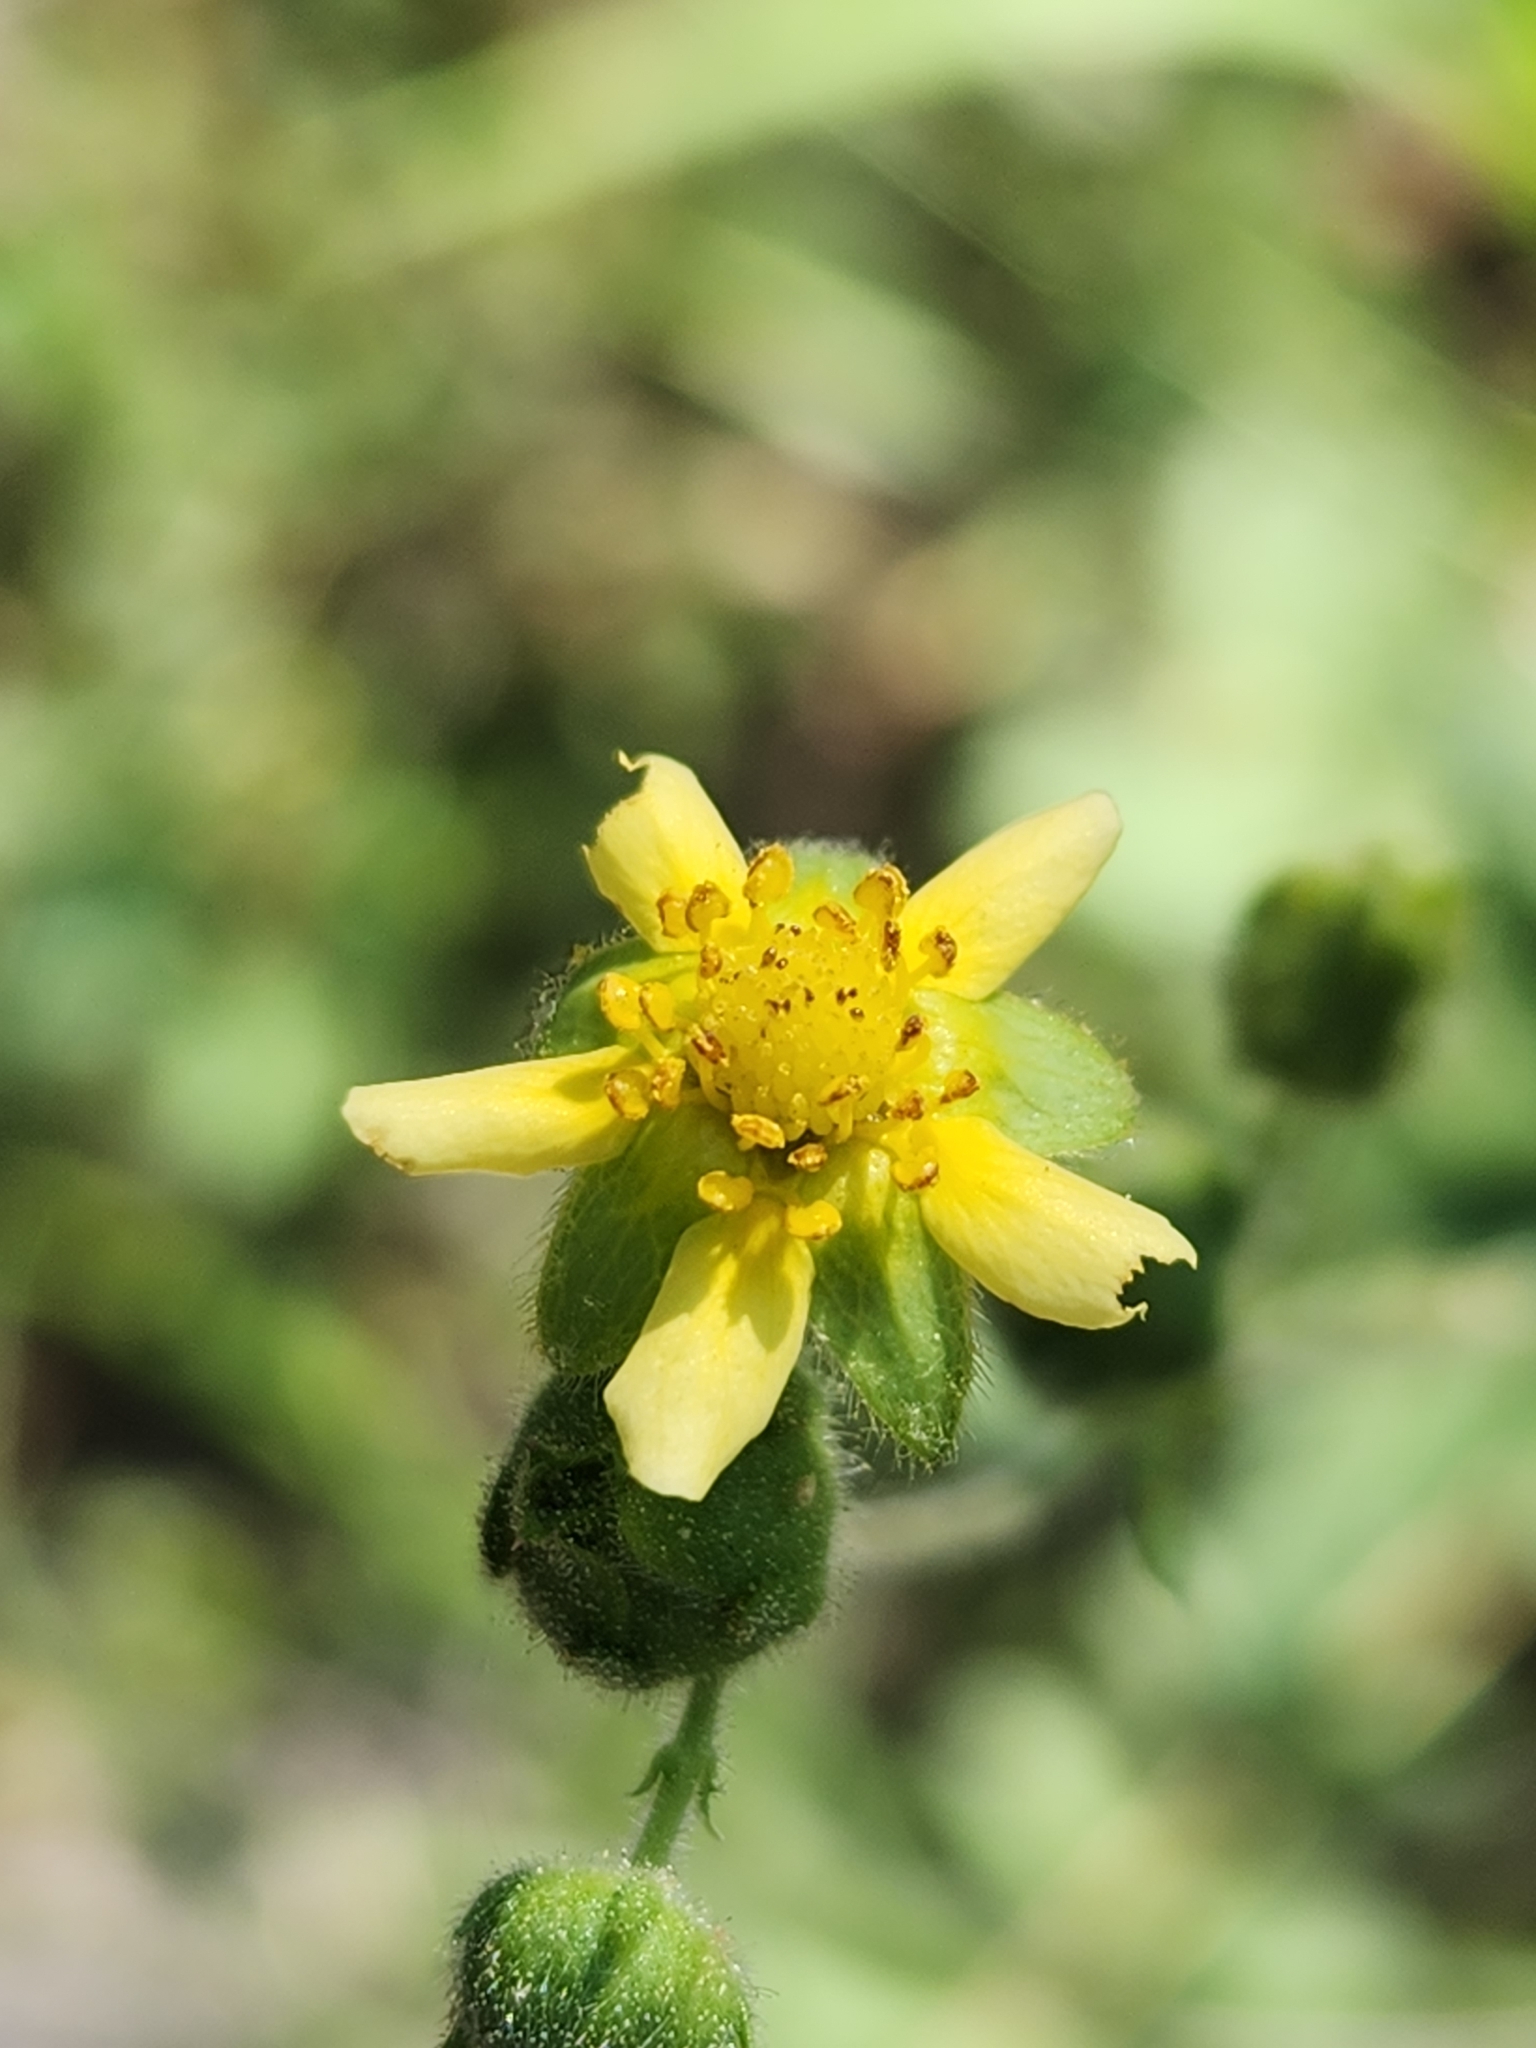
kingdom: Plantae
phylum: Tracheophyta
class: Magnoliopsida
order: Rosales
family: Rosaceae
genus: Drymocallis
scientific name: Drymocallis glandulosa
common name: Sticky cinquefoil
